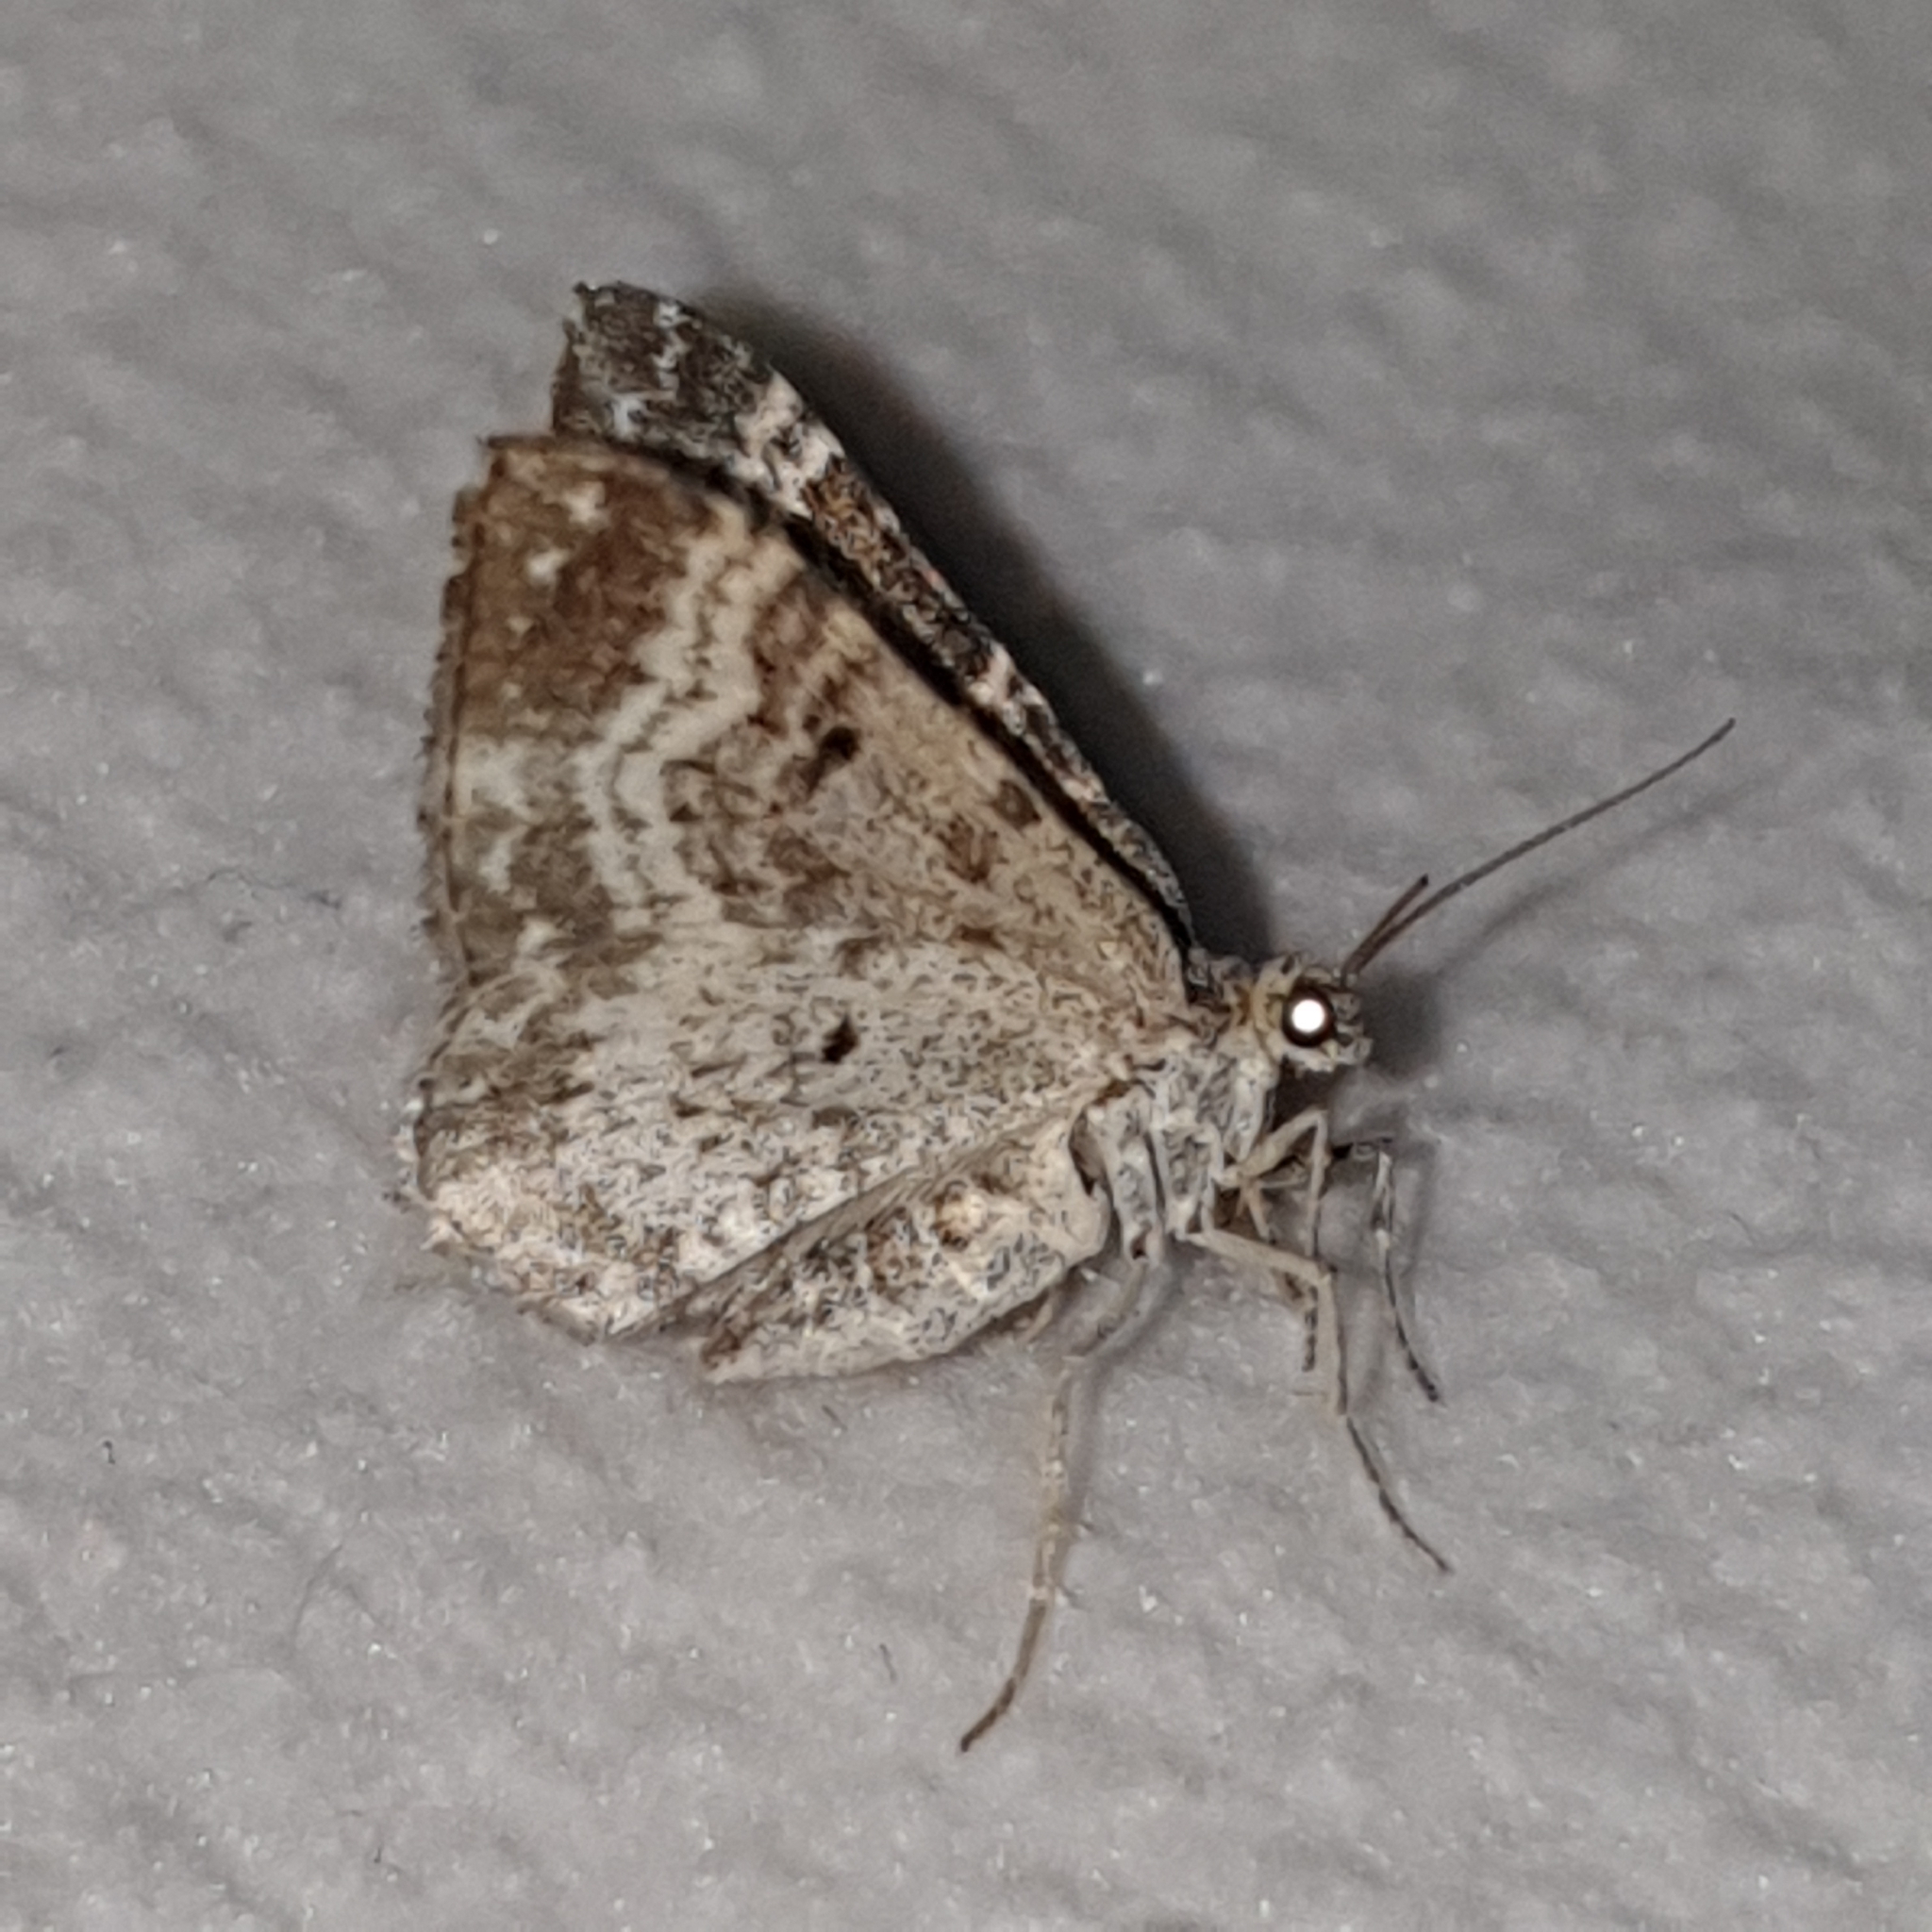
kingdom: Animalia
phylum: Arthropoda
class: Insecta
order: Lepidoptera
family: Geometridae
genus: Epirrhoe
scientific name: Epirrhoe alternata
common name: Common carpet
